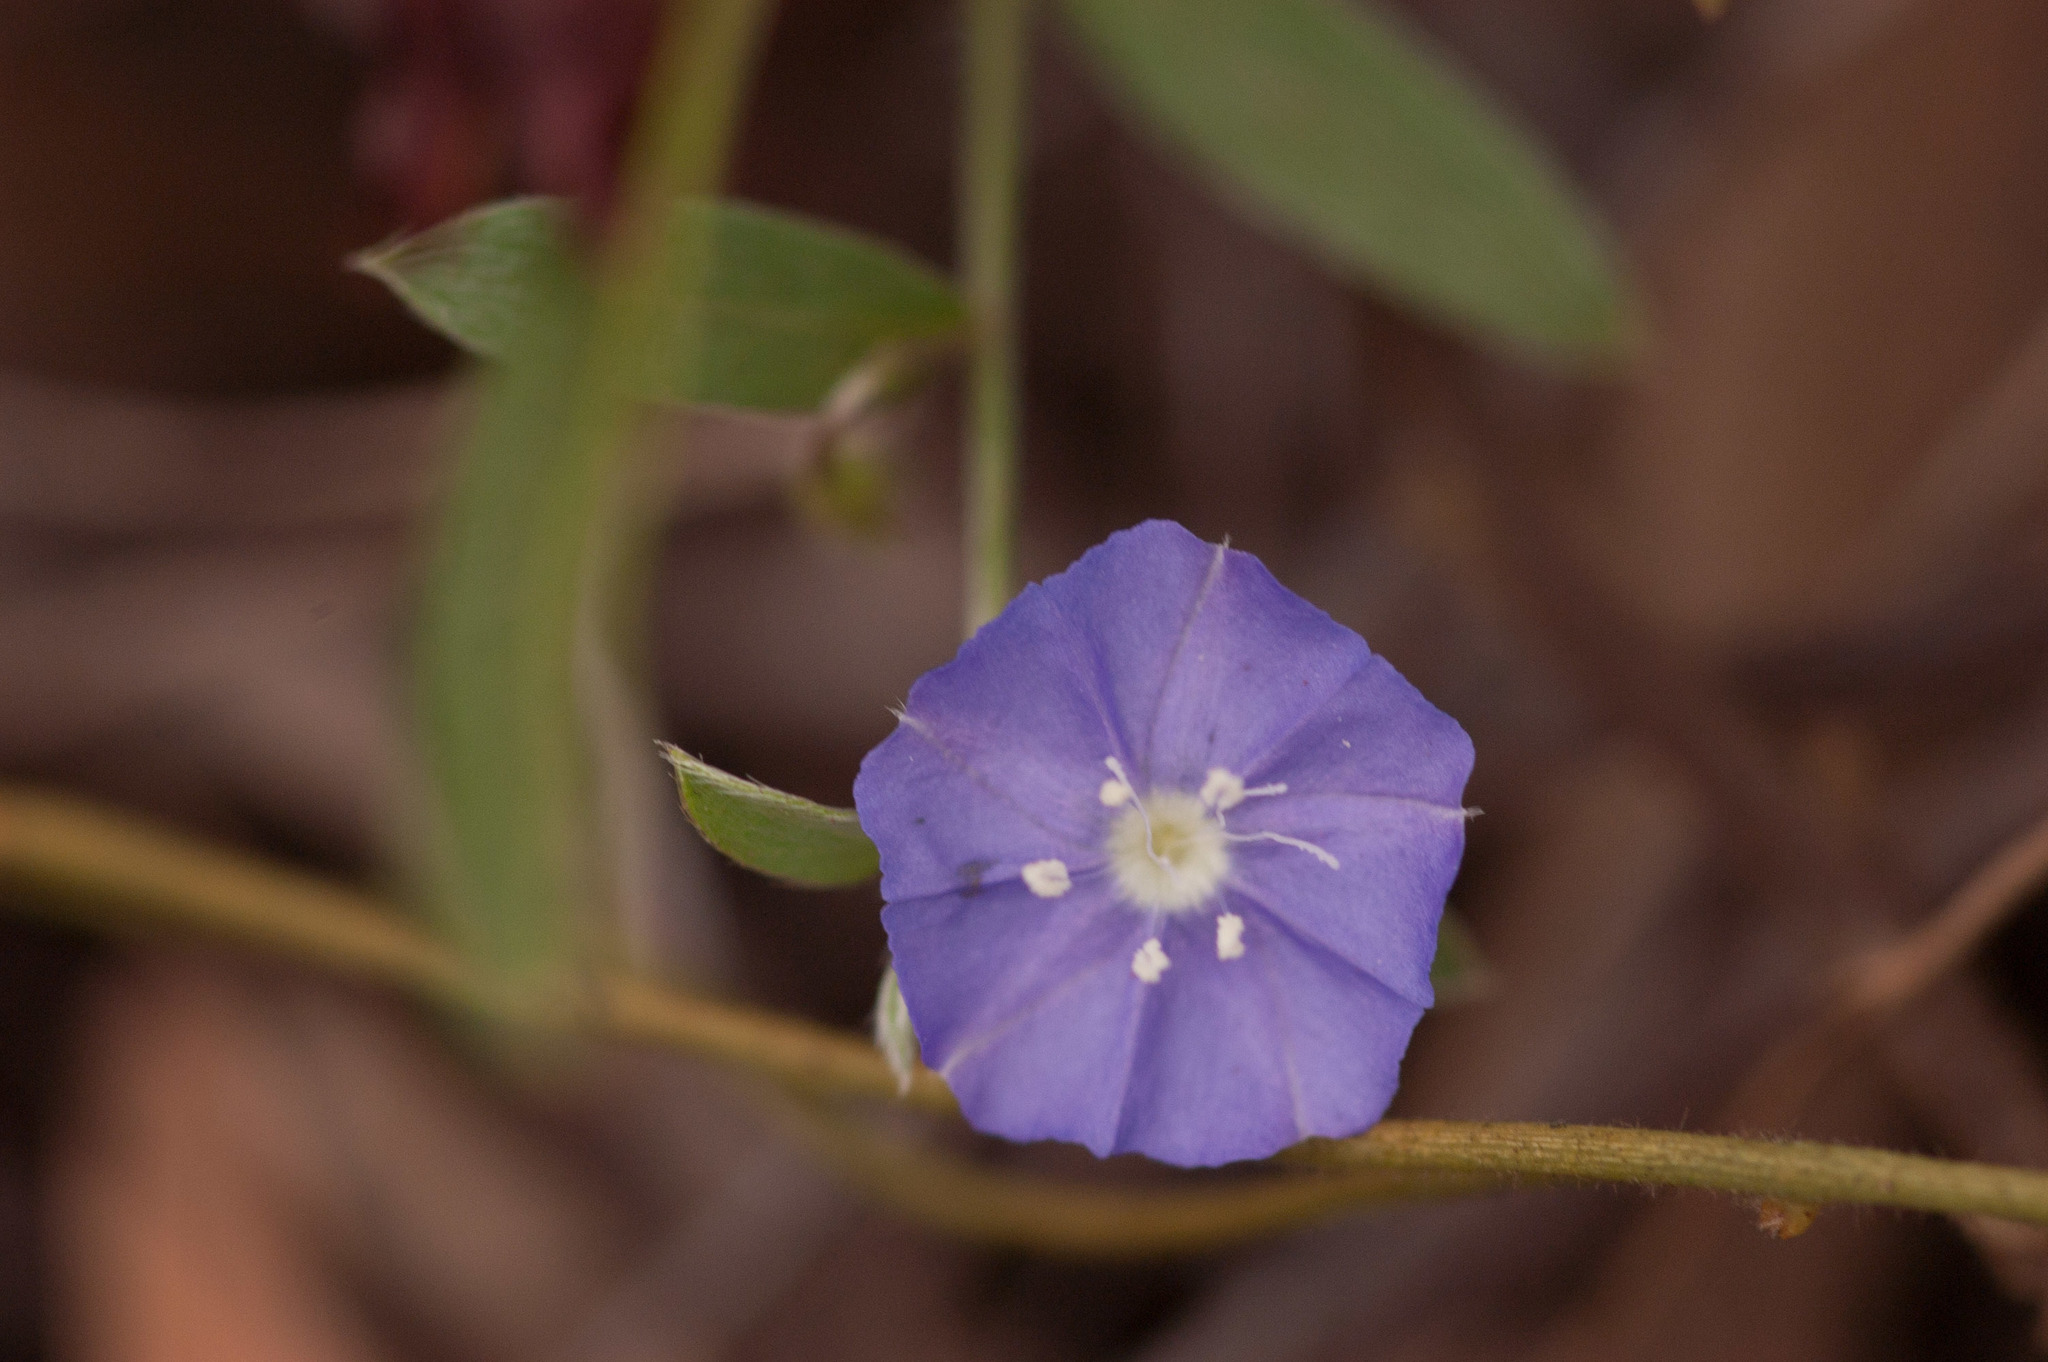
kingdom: Plantae
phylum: Tracheophyta
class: Magnoliopsida
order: Solanales
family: Convolvulaceae
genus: Evolvulus
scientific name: Evolvulus alsinoides
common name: Slender dwarf morning-glory
